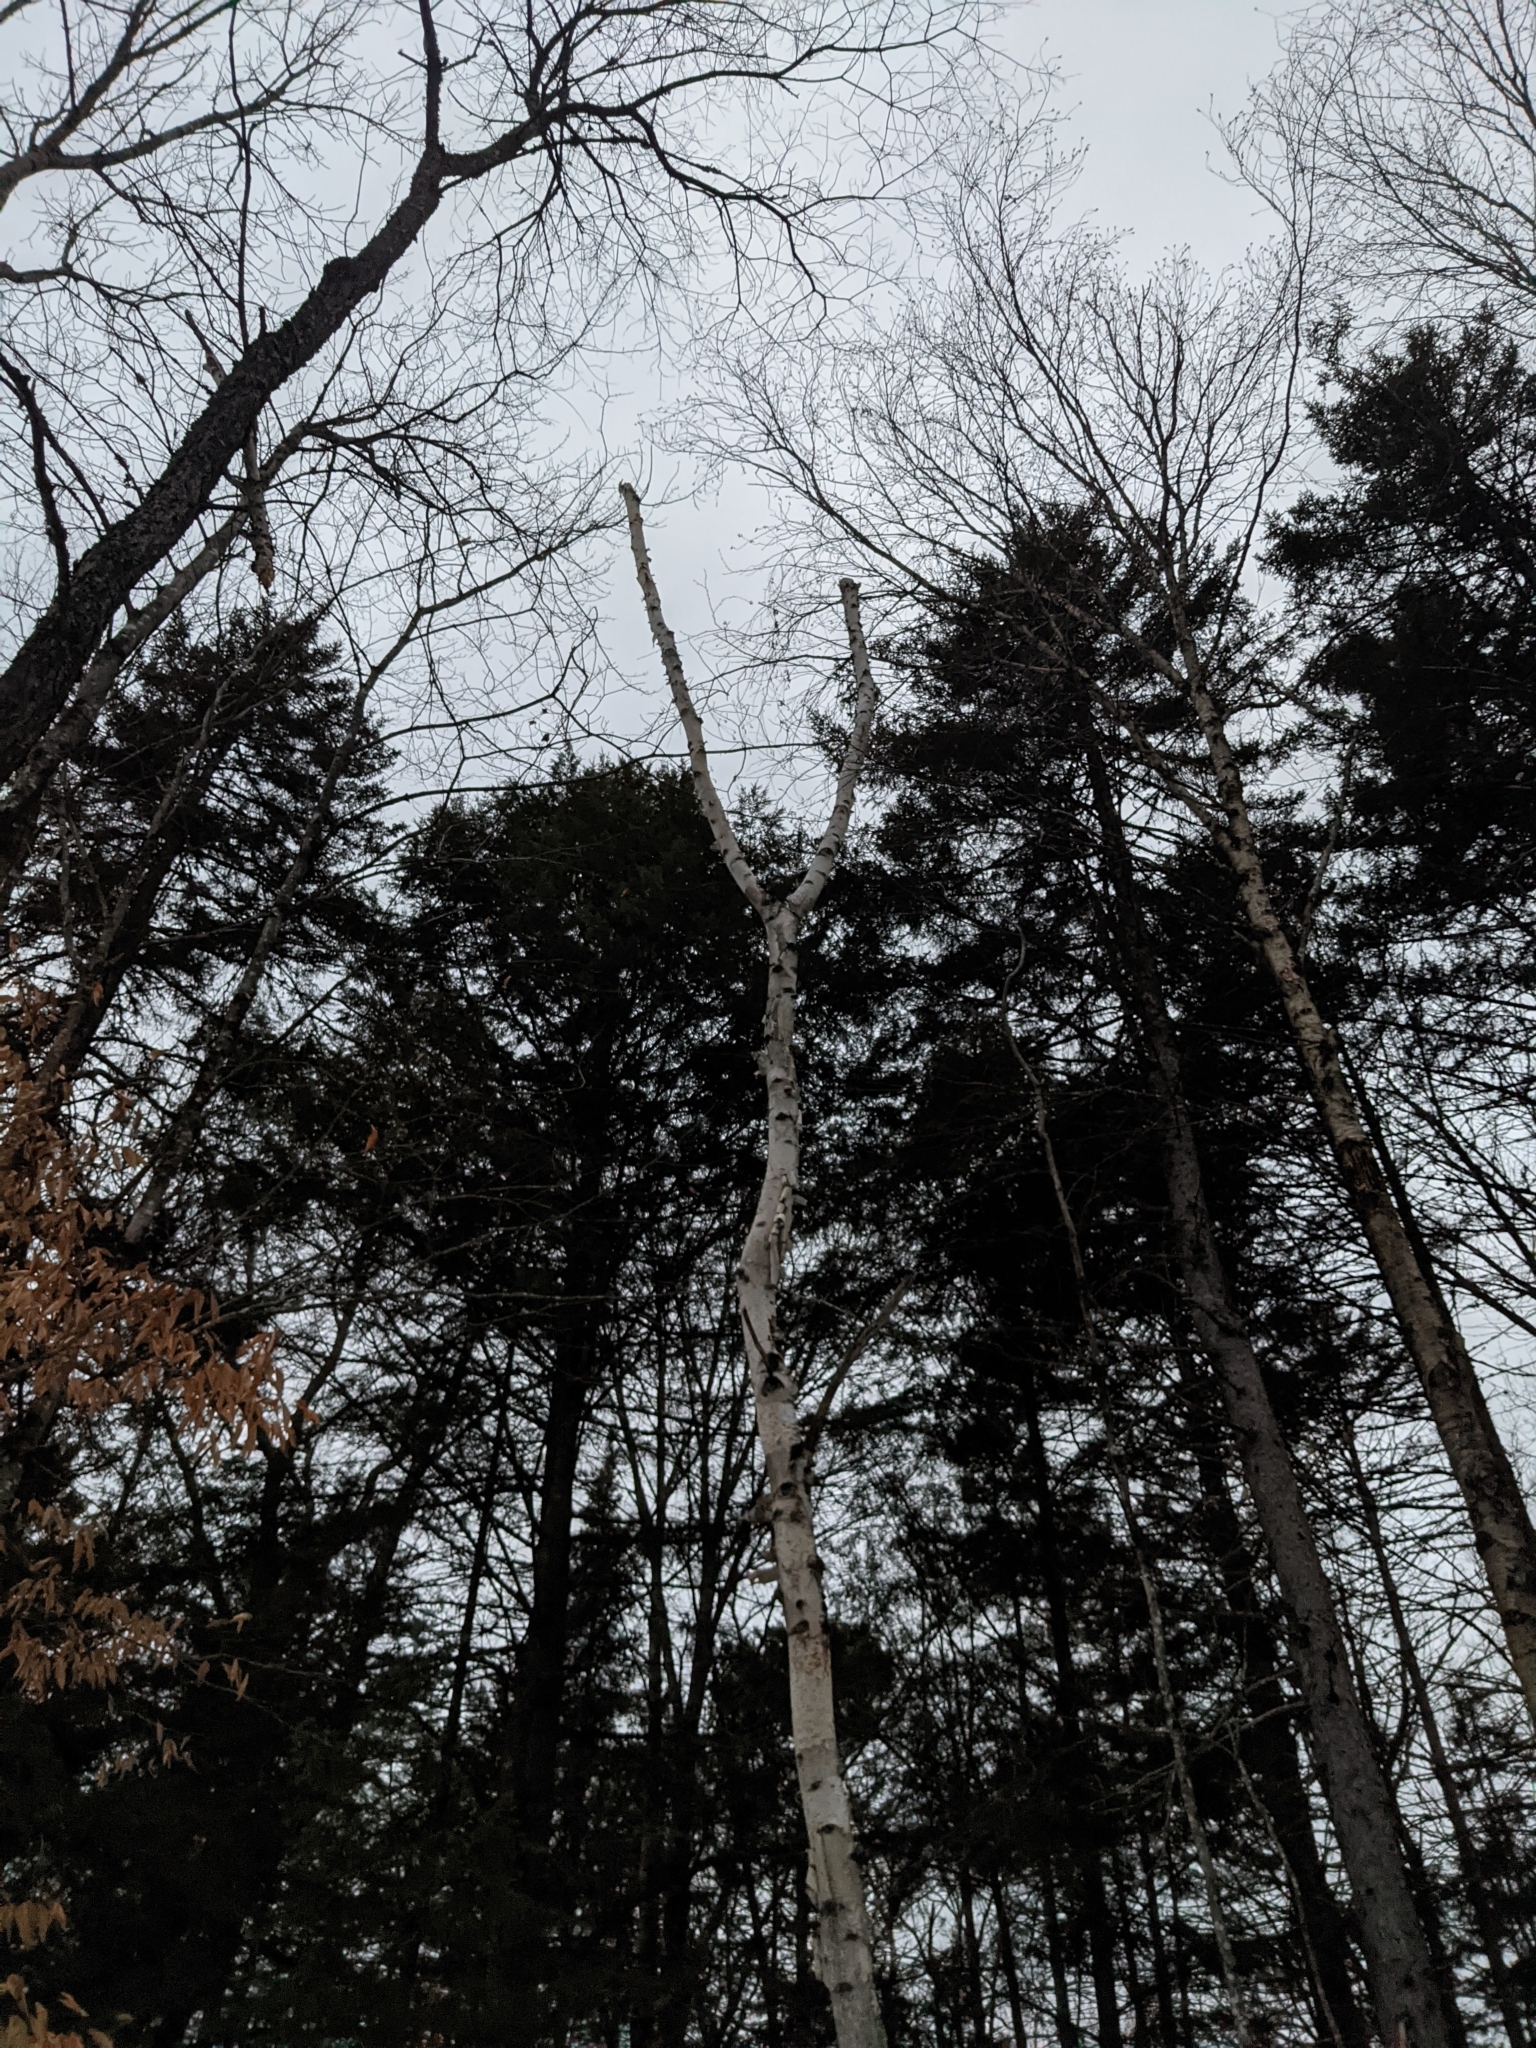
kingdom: Plantae
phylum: Tracheophyta
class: Magnoliopsida
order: Fagales
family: Betulaceae
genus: Betula
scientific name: Betula papyrifera
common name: Paper birch
